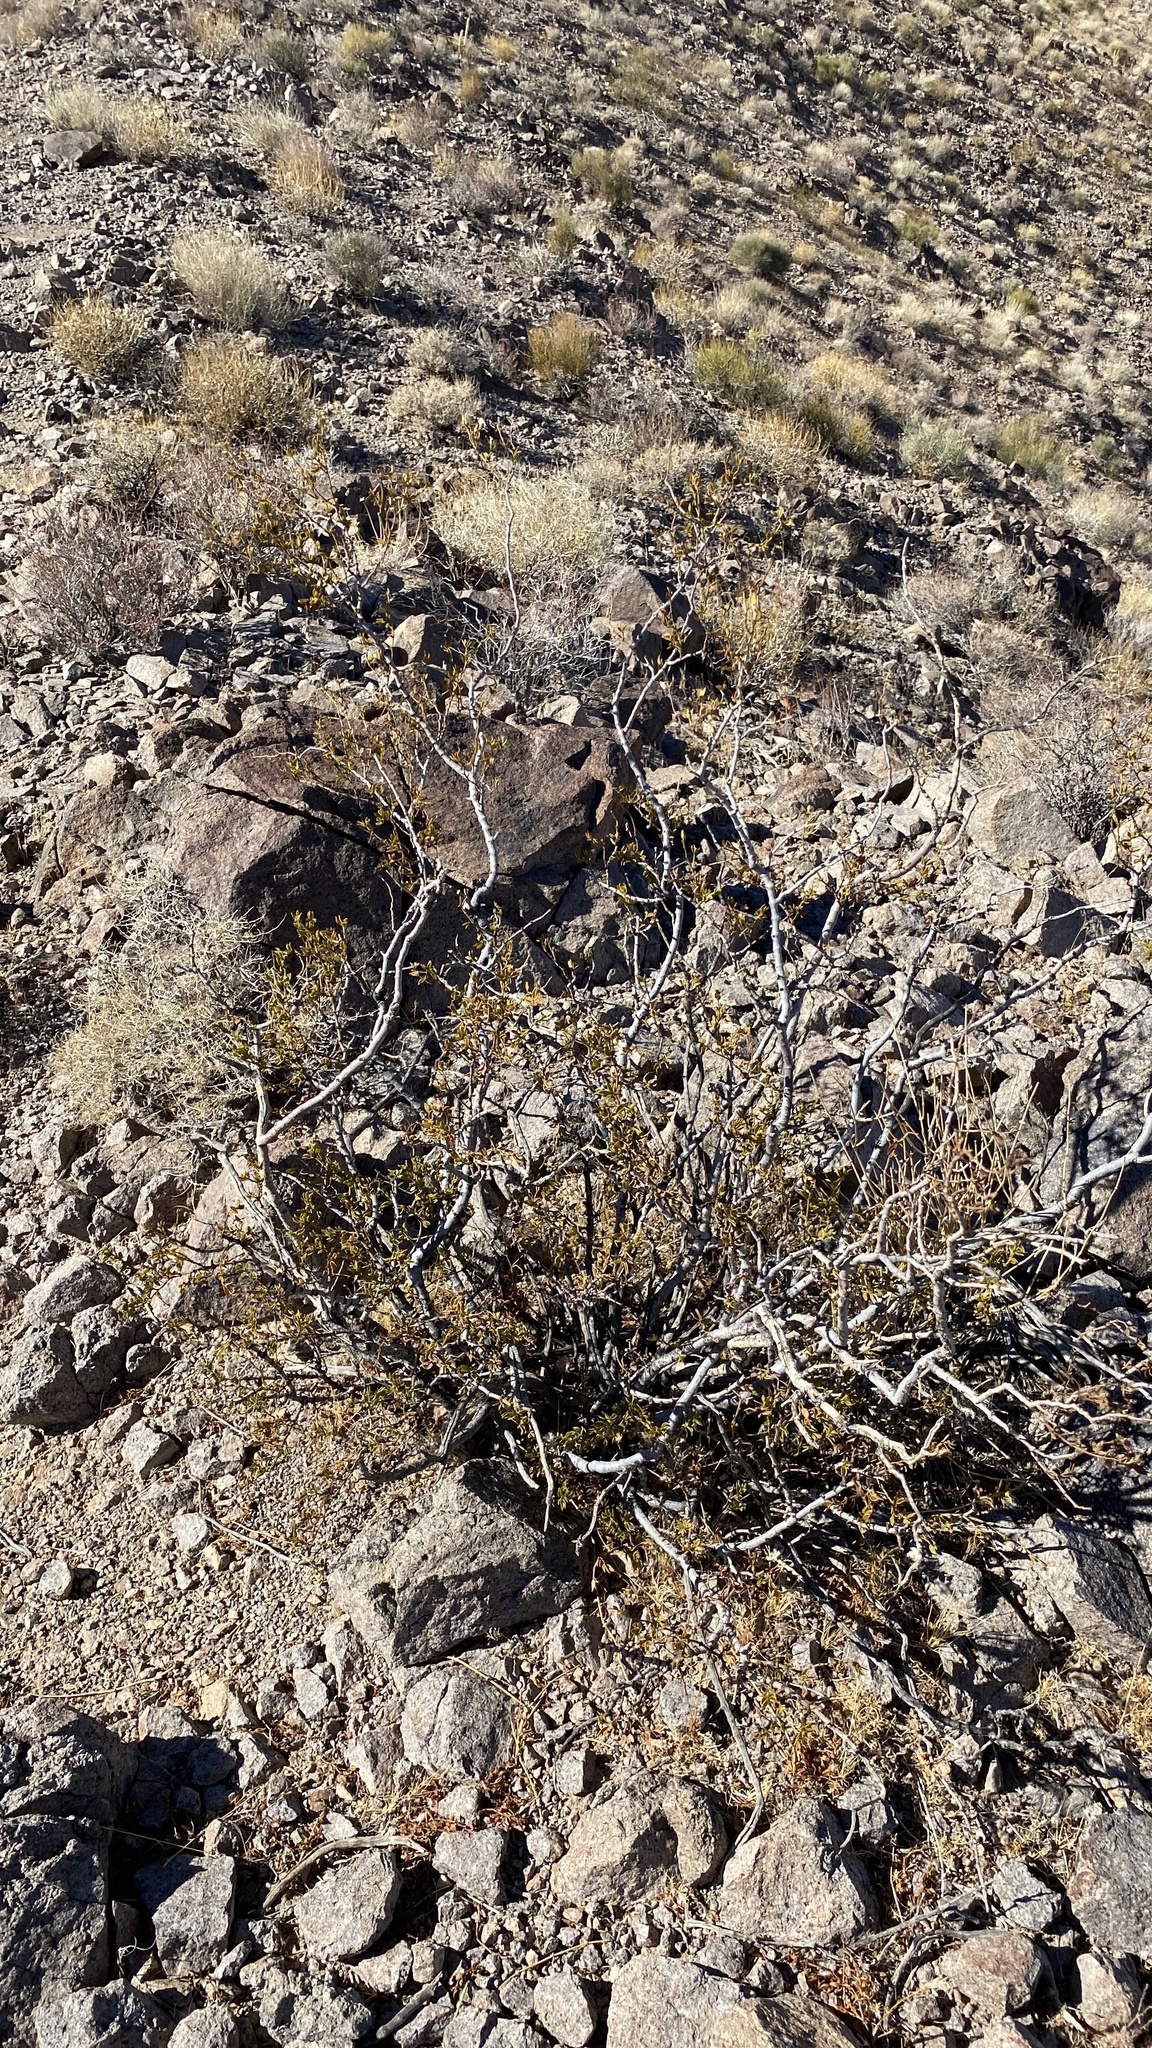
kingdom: Plantae
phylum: Tracheophyta
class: Magnoliopsida
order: Zygophyllales
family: Zygophyllaceae
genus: Larrea
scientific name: Larrea tridentata
